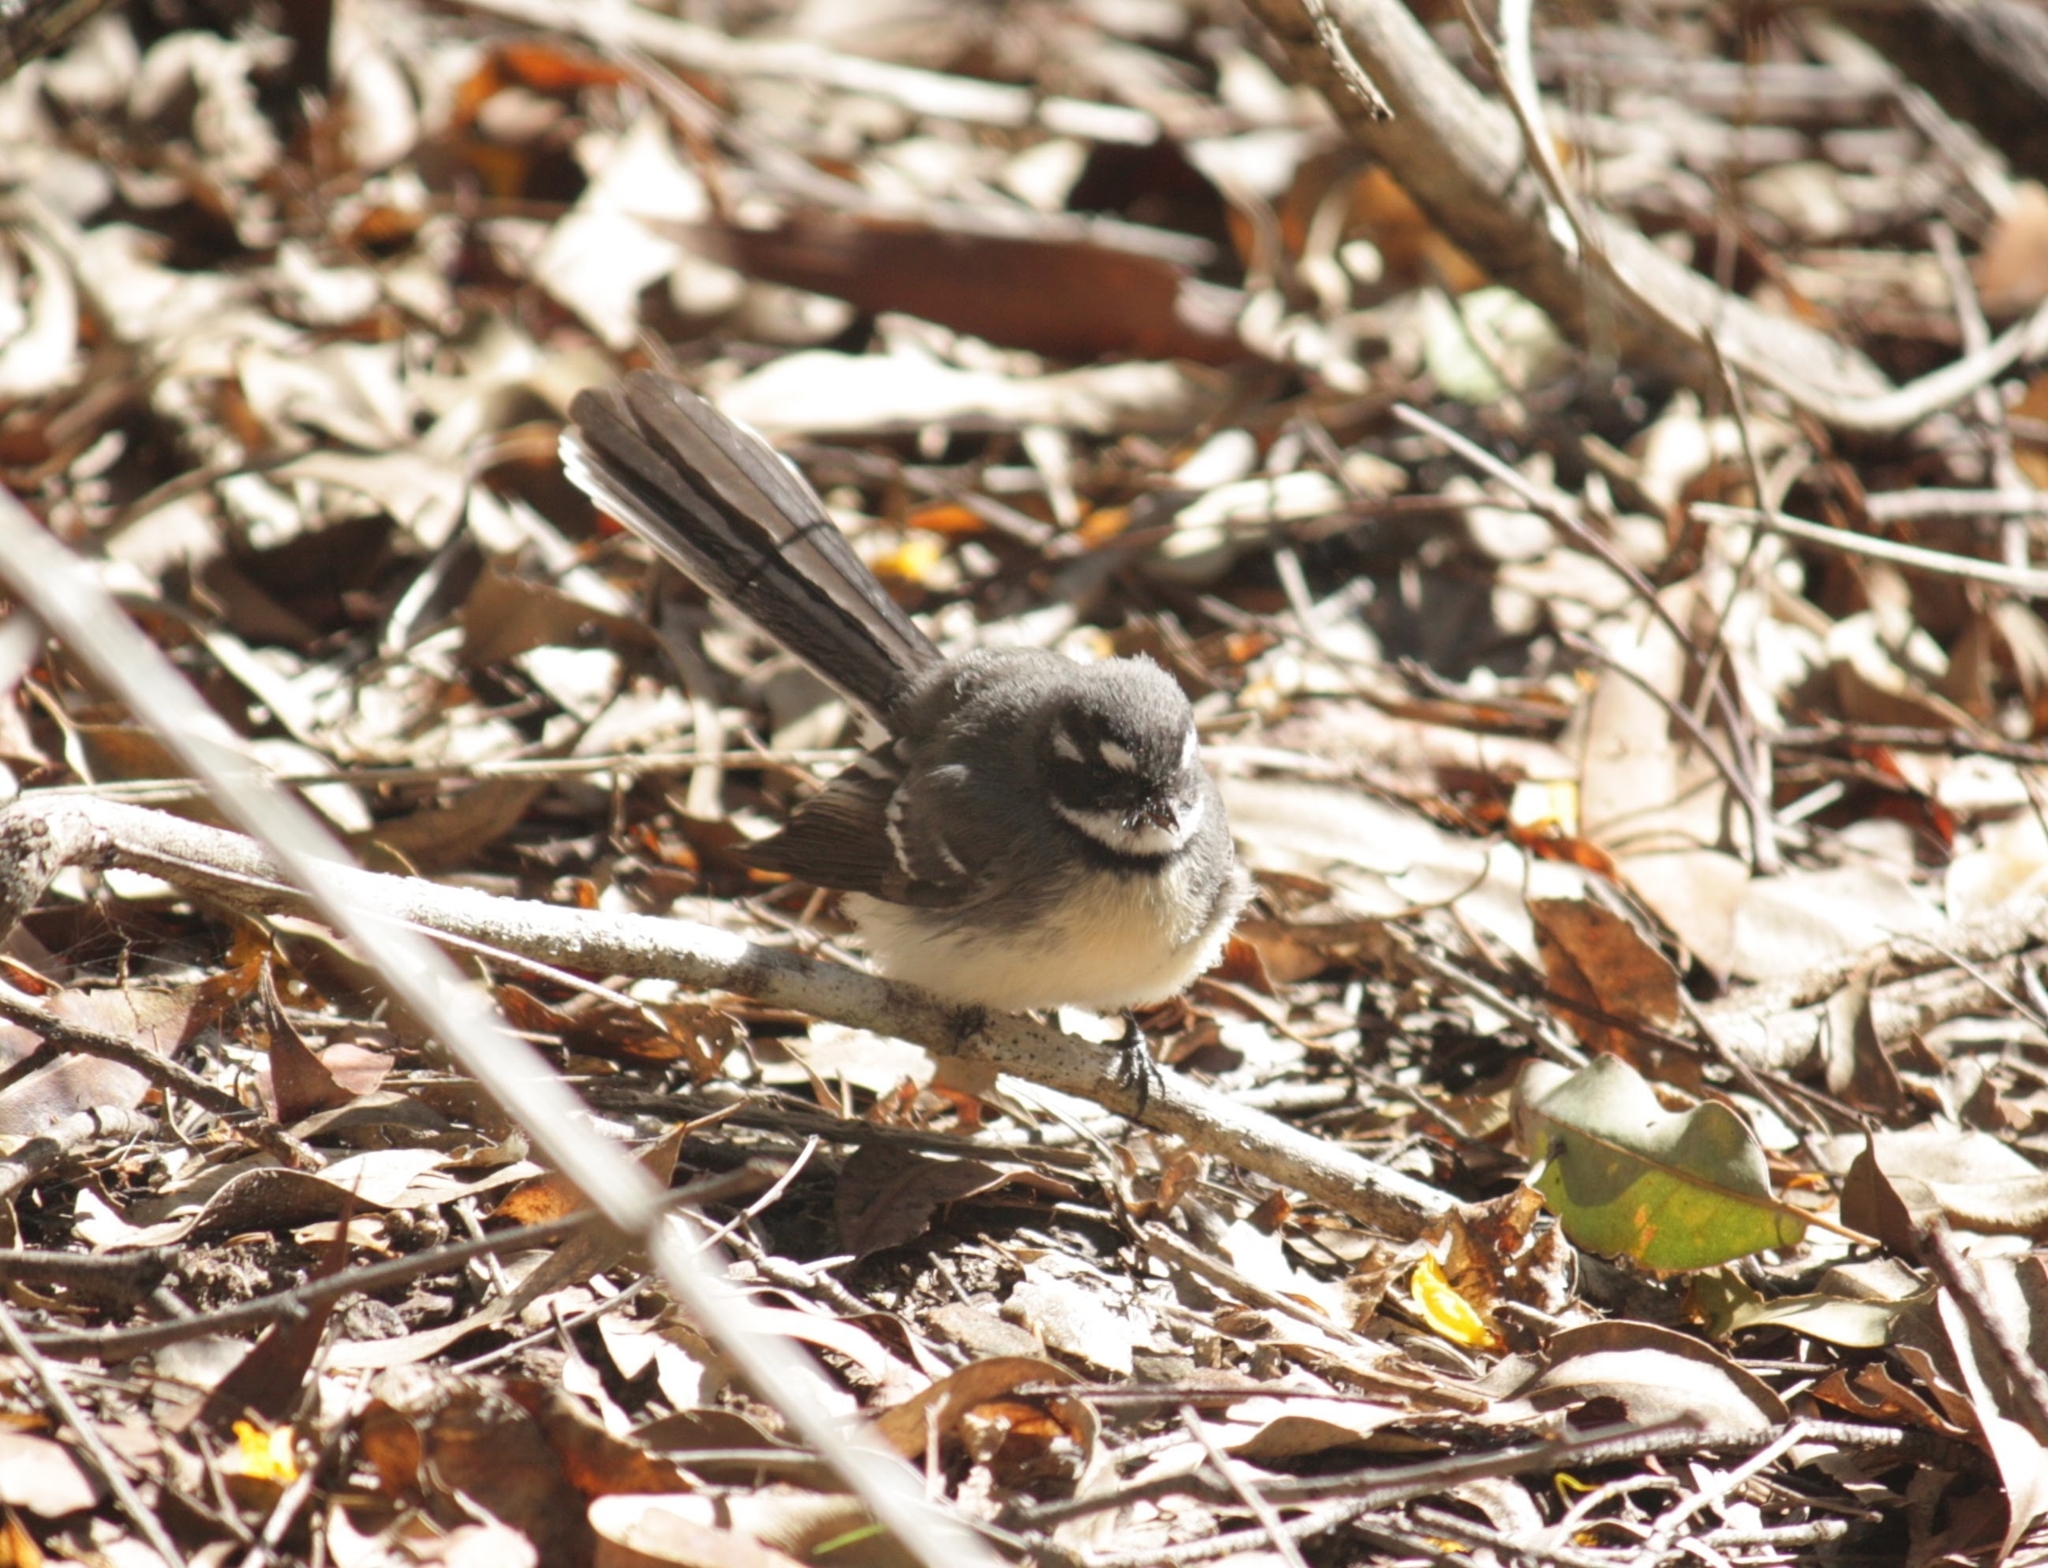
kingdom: Animalia
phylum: Chordata
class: Aves
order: Passeriformes
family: Rhipiduridae
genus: Rhipidura
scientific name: Rhipidura albiscapa
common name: Grey fantail
